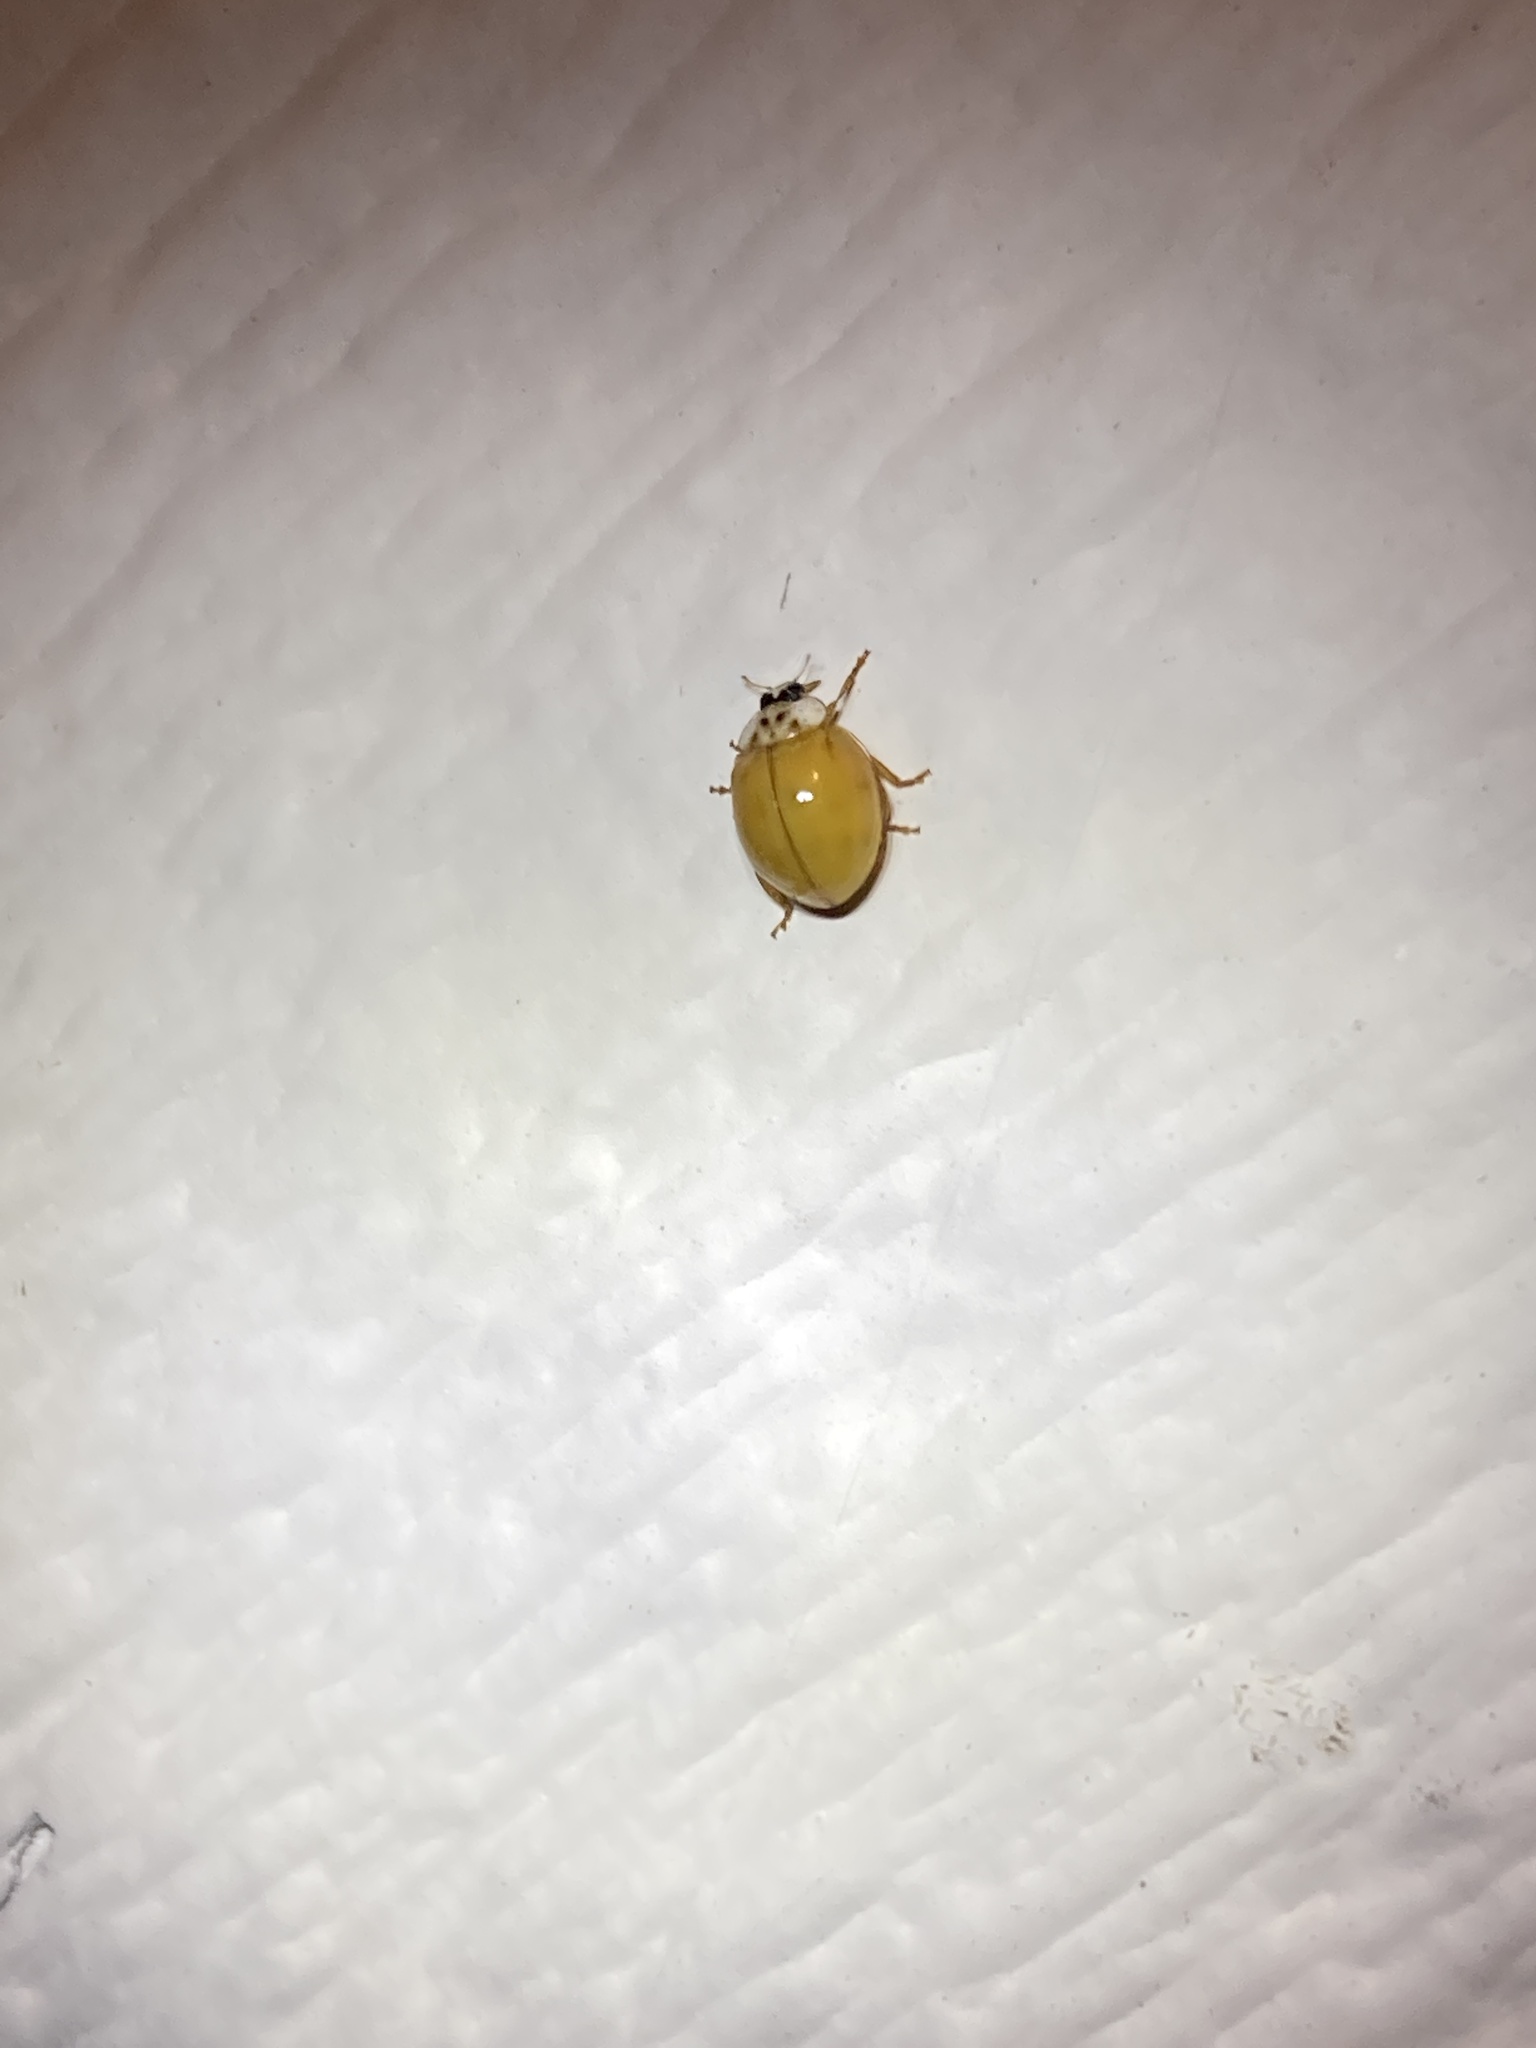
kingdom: Animalia
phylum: Arthropoda
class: Insecta
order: Coleoptera
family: Coccinellidae
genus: Harmonia
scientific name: Harmonia axyridis
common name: Harlequin ladybird
